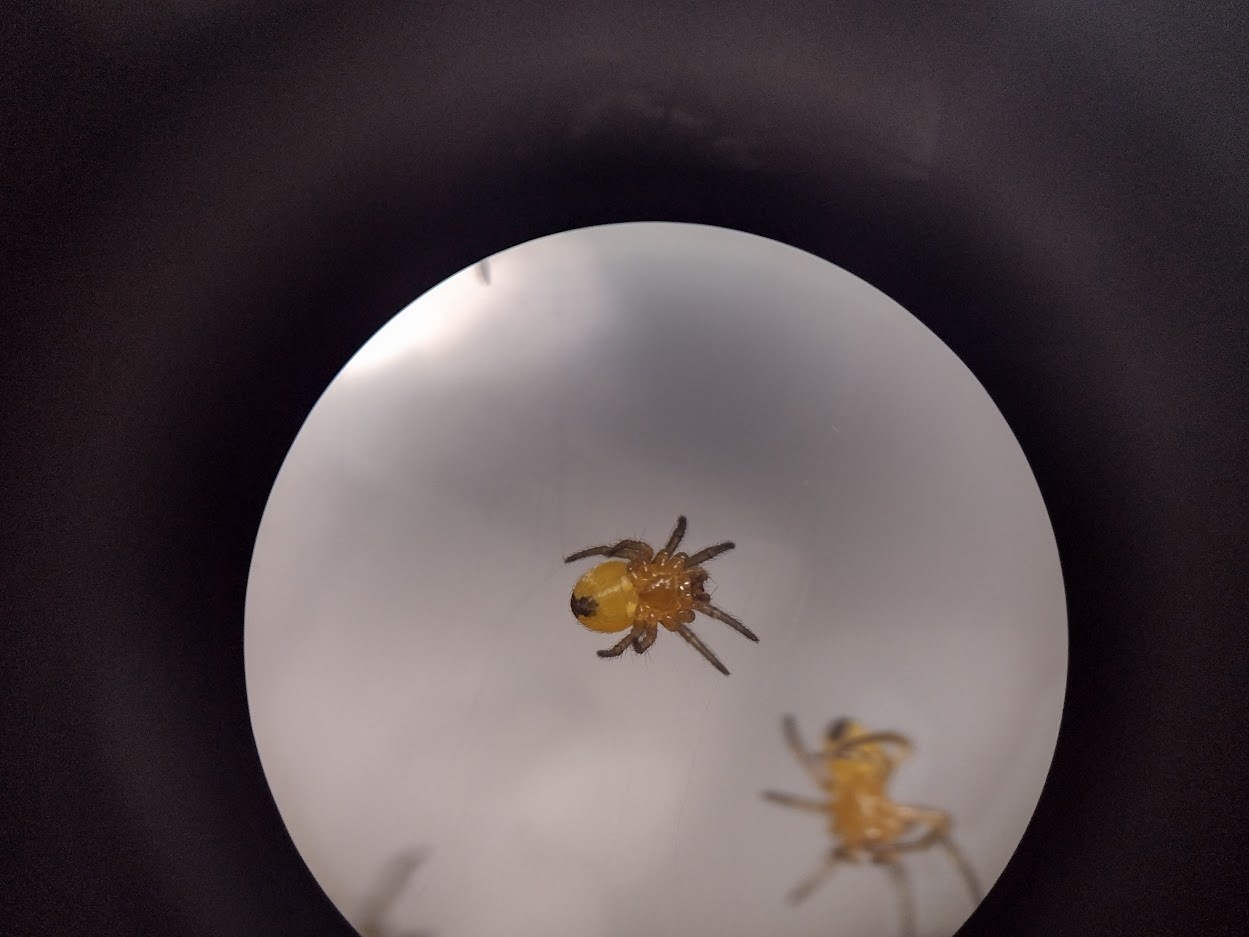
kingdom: Animalia
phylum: Arthropoda
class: Arachnida
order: Araneae
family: Araneidae
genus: Araneus
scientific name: Araneus
